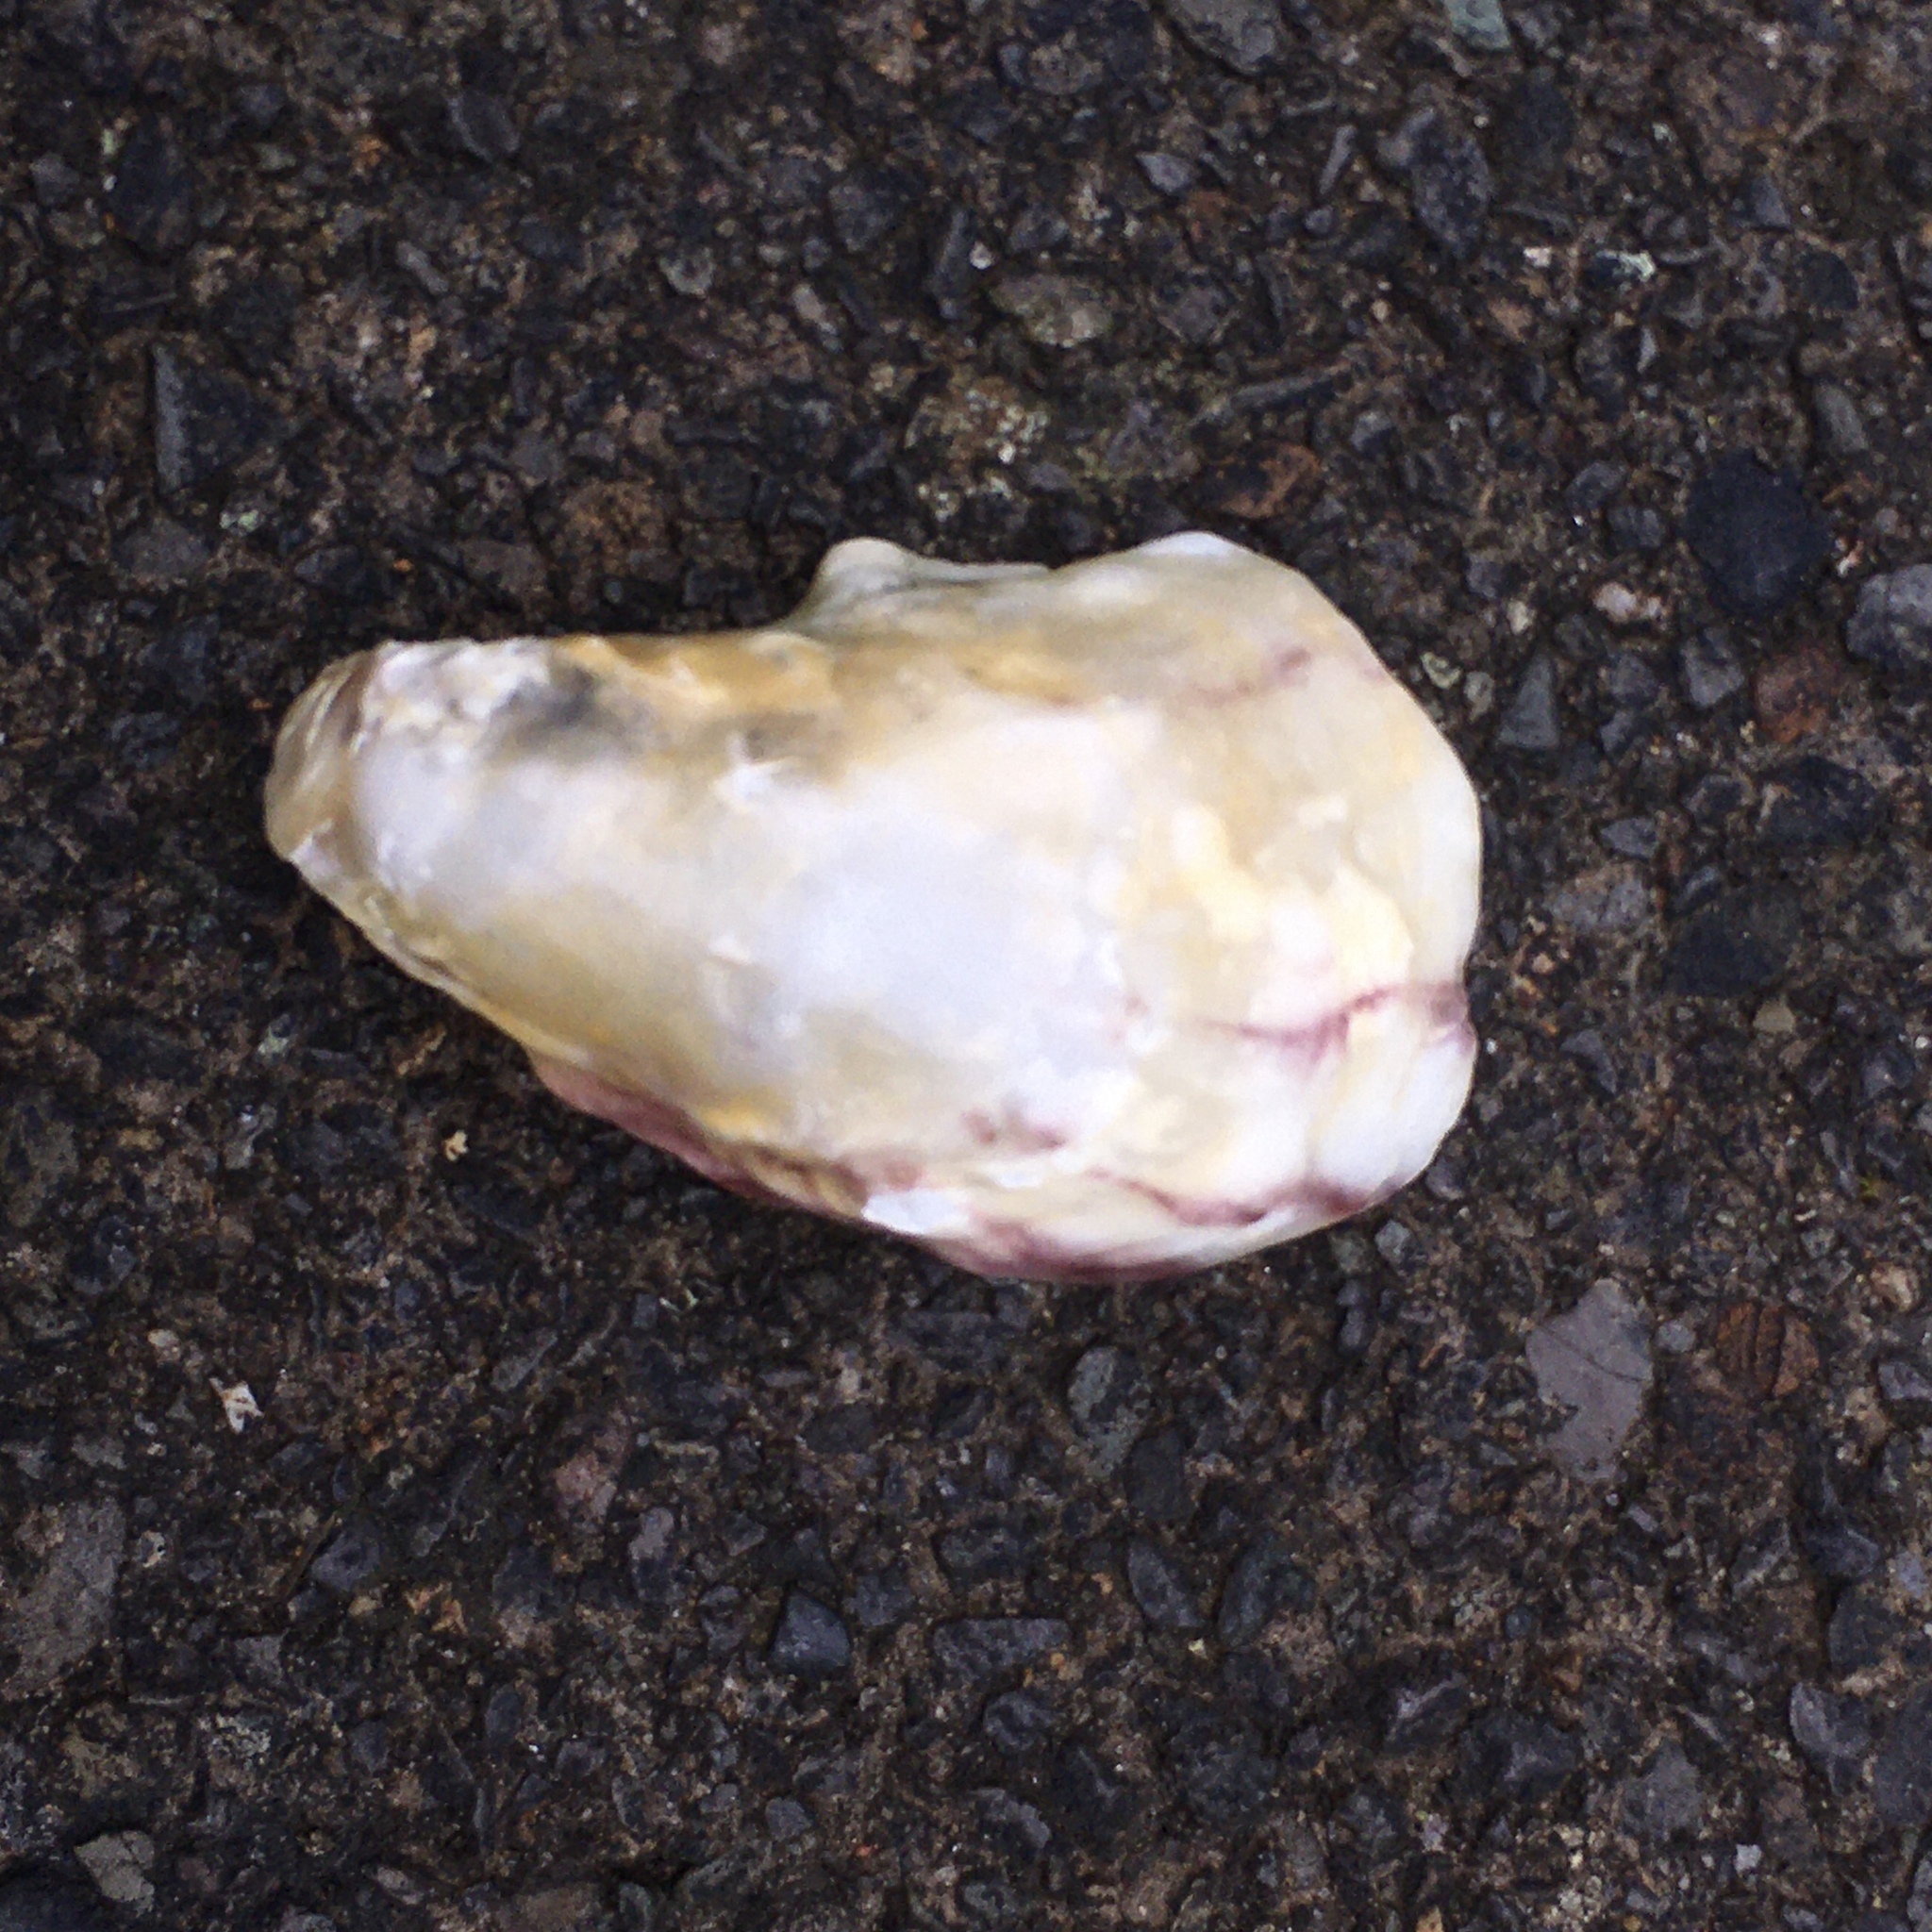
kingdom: Animalia
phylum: Mollusca
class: Bivalvia
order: Ostreida
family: Ostreidae
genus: Magallana
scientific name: Magallana gigas
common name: Pacific oyster
